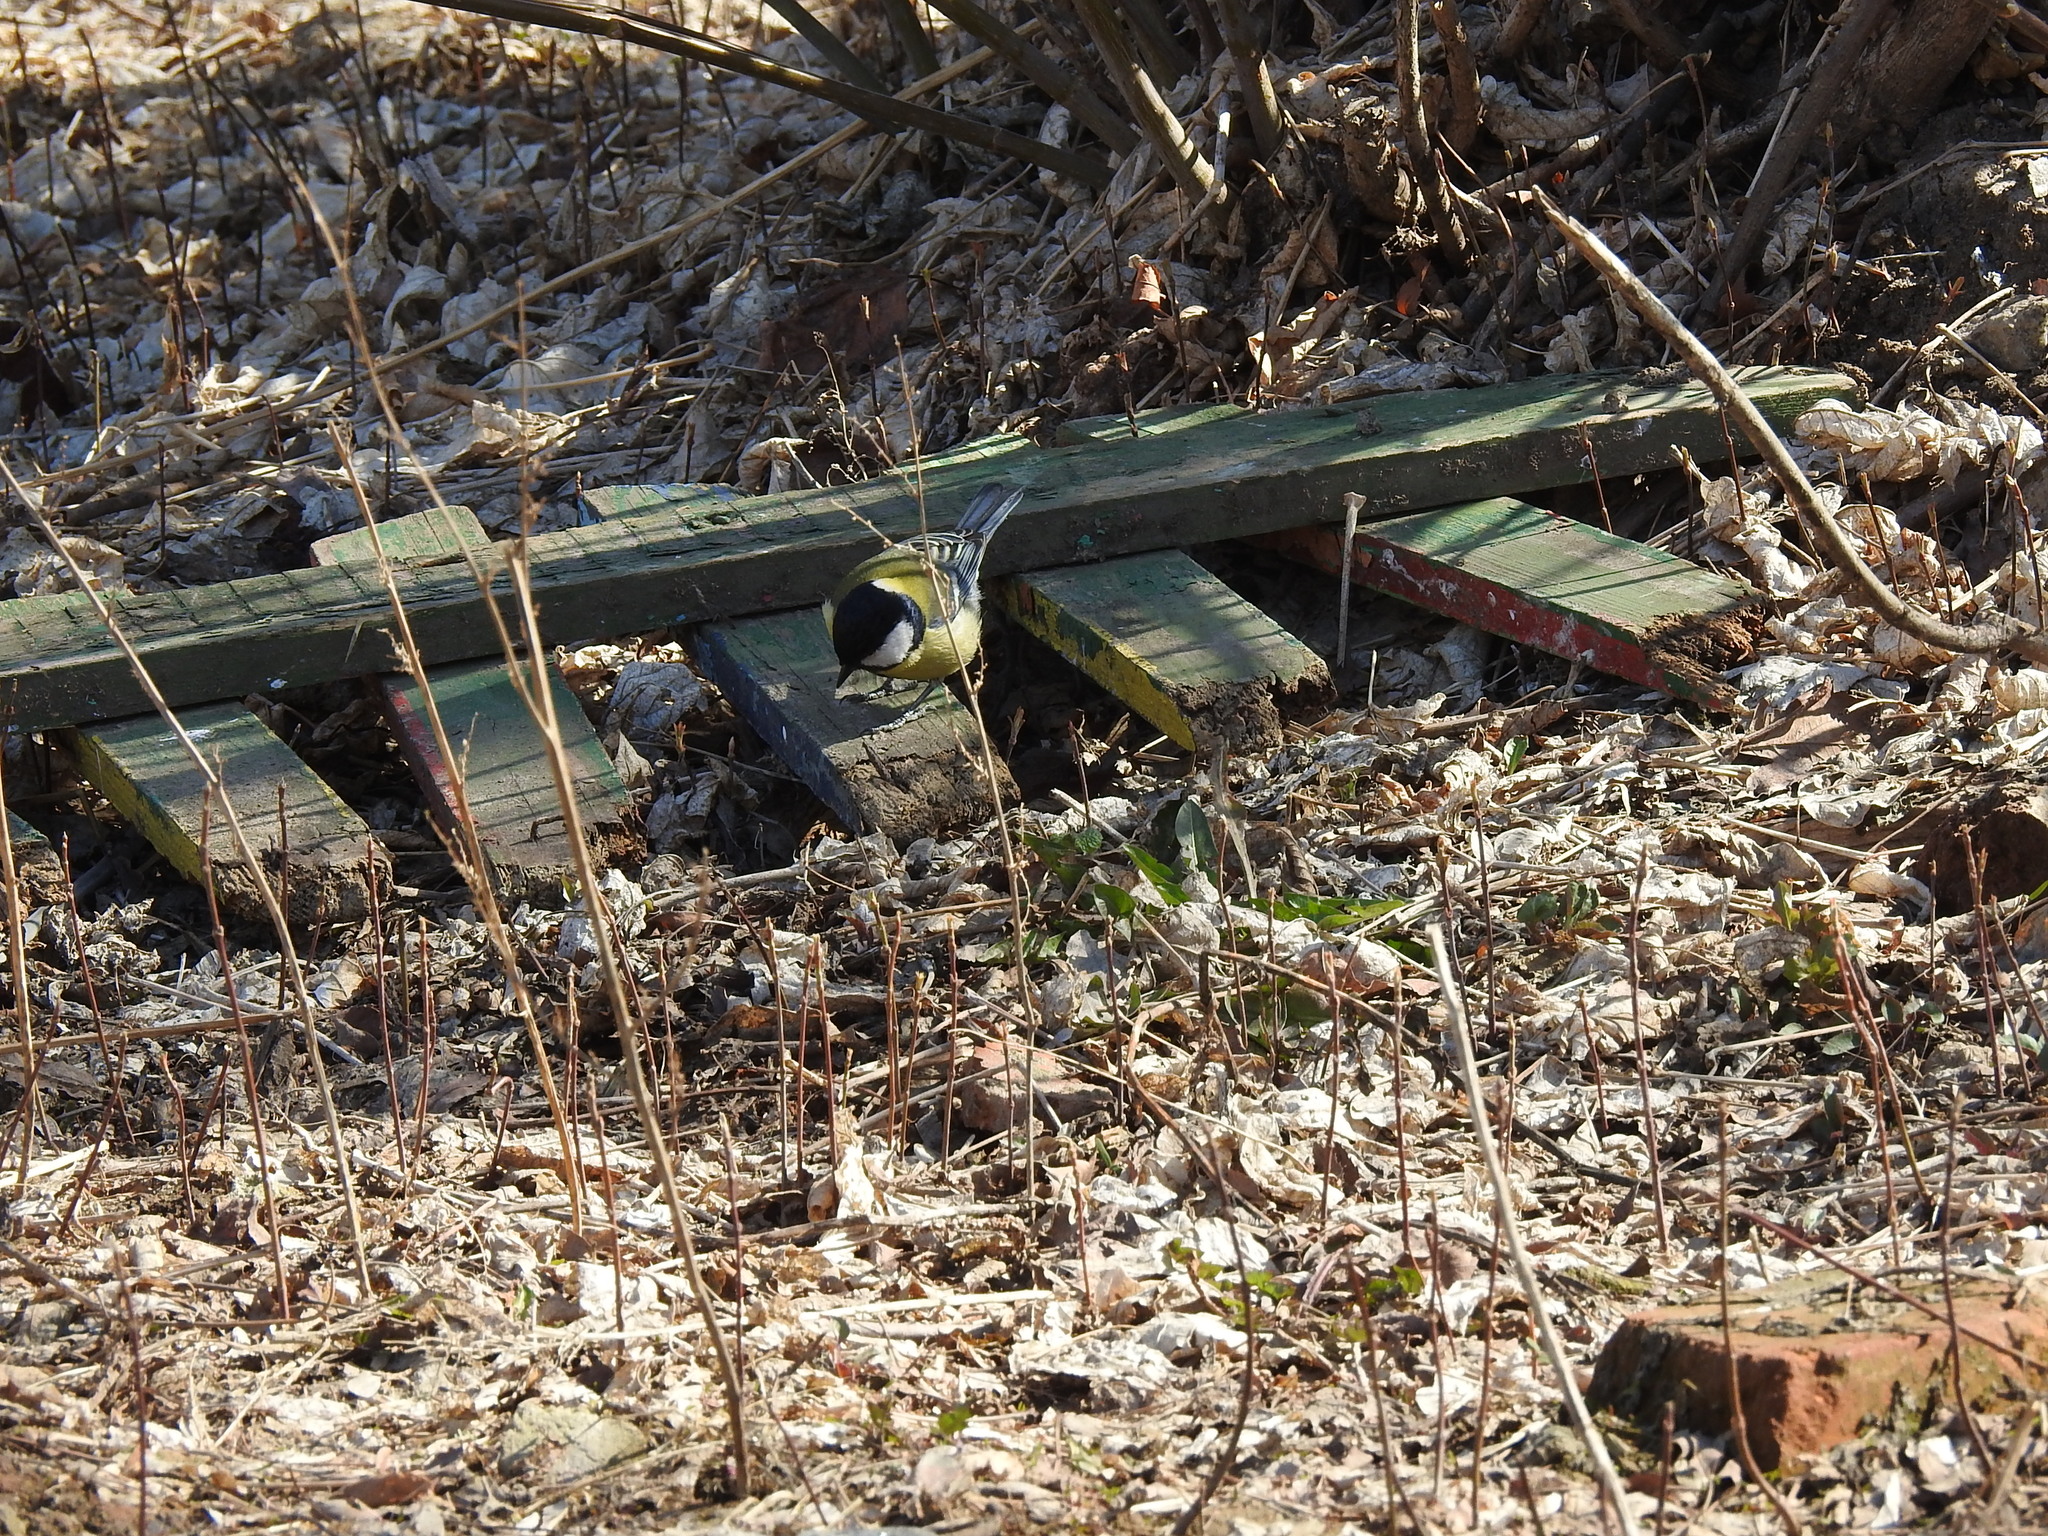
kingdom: Animalia
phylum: Chordata
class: Aves
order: Passeriformes
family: Paridae
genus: Parus
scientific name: Parus major
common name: Great tit
